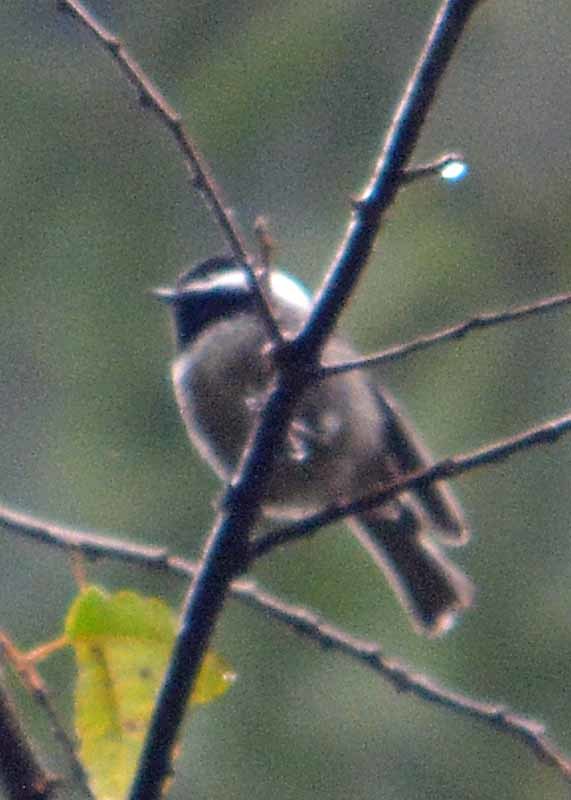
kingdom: Animalia
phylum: Chordata
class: Aves
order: Passeriformes
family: Paridae
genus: Poecile
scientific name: Poecile sclateri
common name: Mexican chickadee
